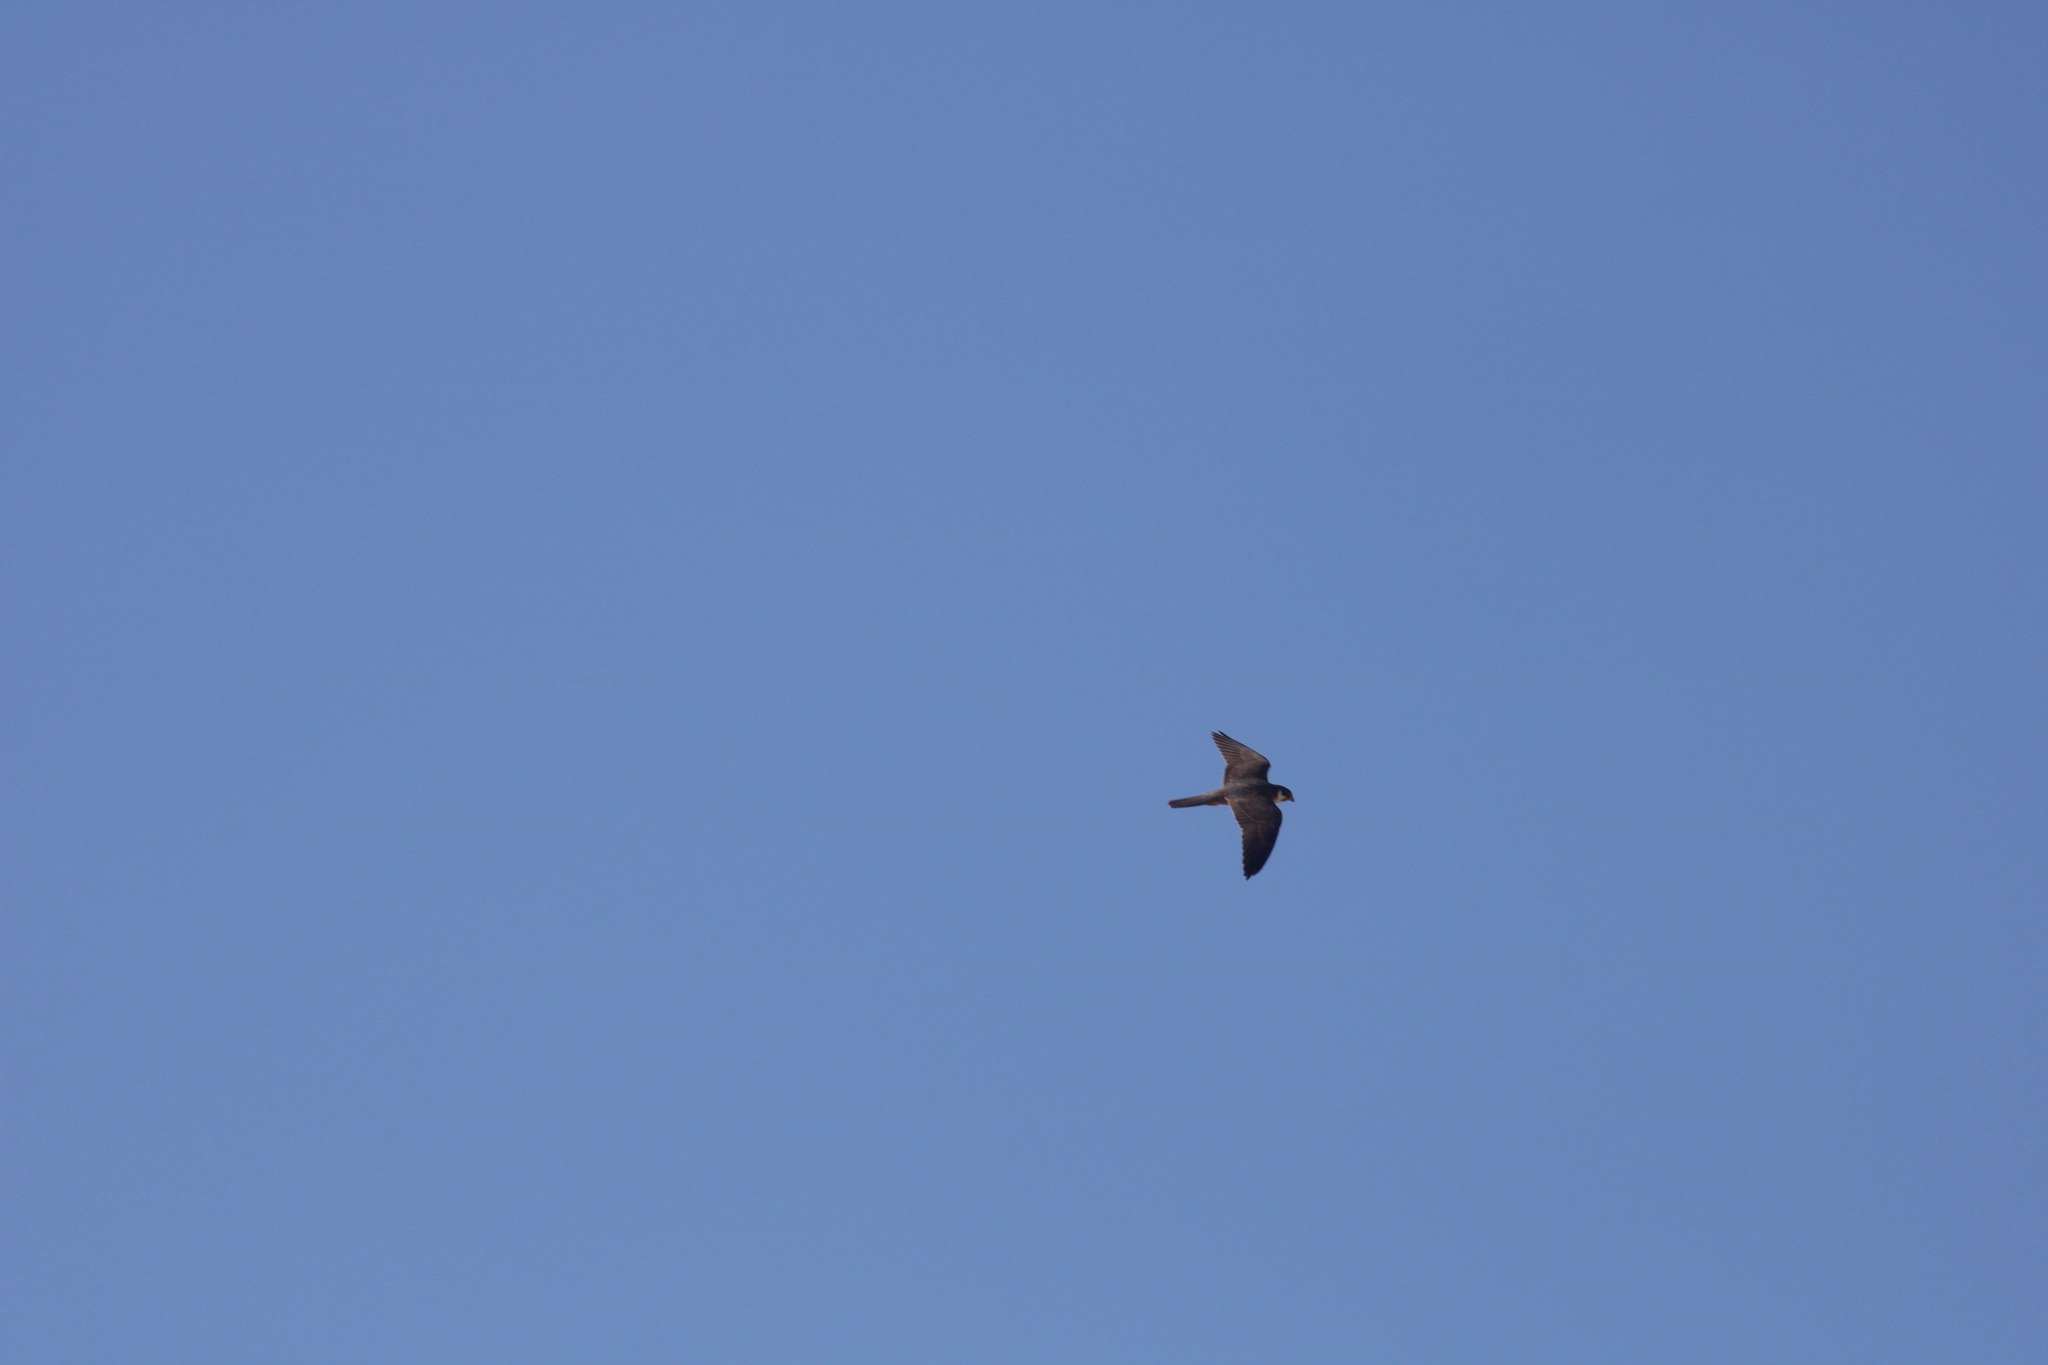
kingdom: Animalia
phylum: Chordata
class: Aves
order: Falconiformes
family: Falconidae
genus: Falco
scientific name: Falco subbuteo
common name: Eurasian hobby
